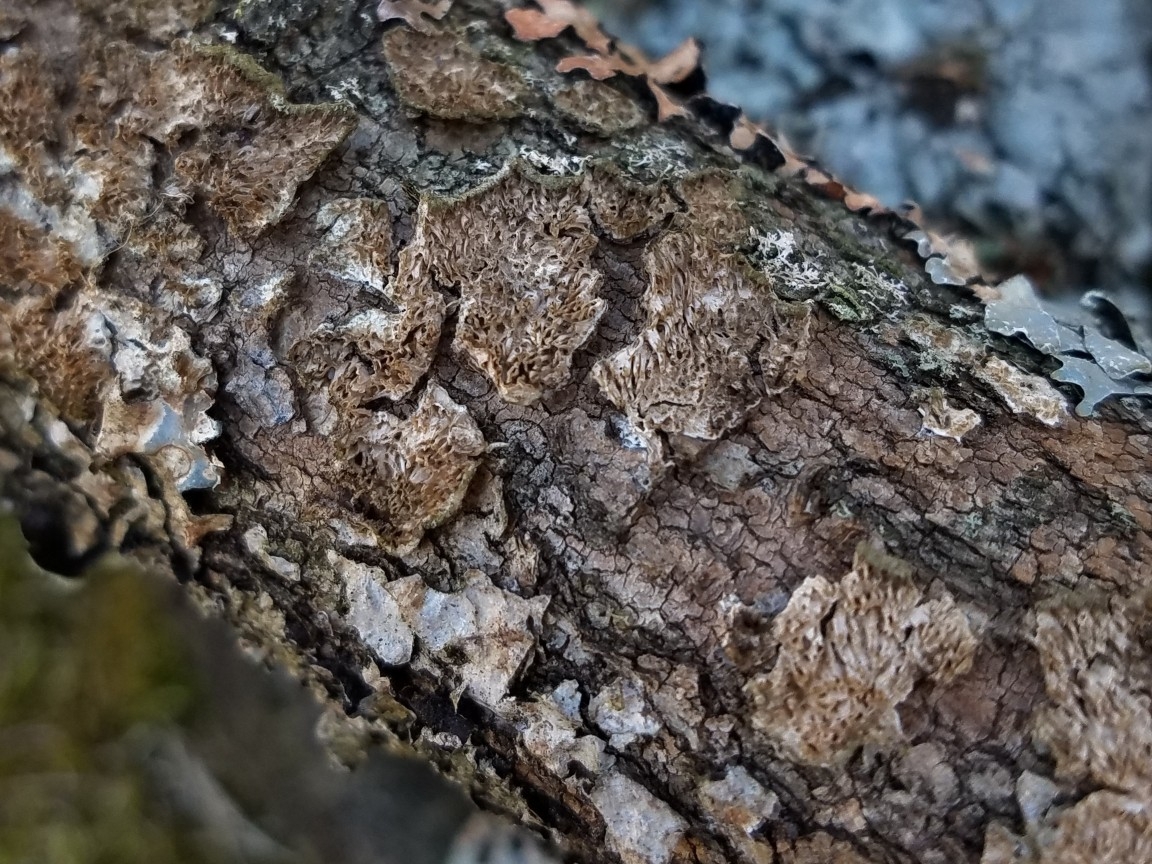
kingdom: Fungi
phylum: Basidiomycota
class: Agaricomycetes
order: Hymenochaetales
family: Hymenochaetaceae
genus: Hydnoporia
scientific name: Hydnoporia olivacea
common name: Brown-toothed crust fungus
